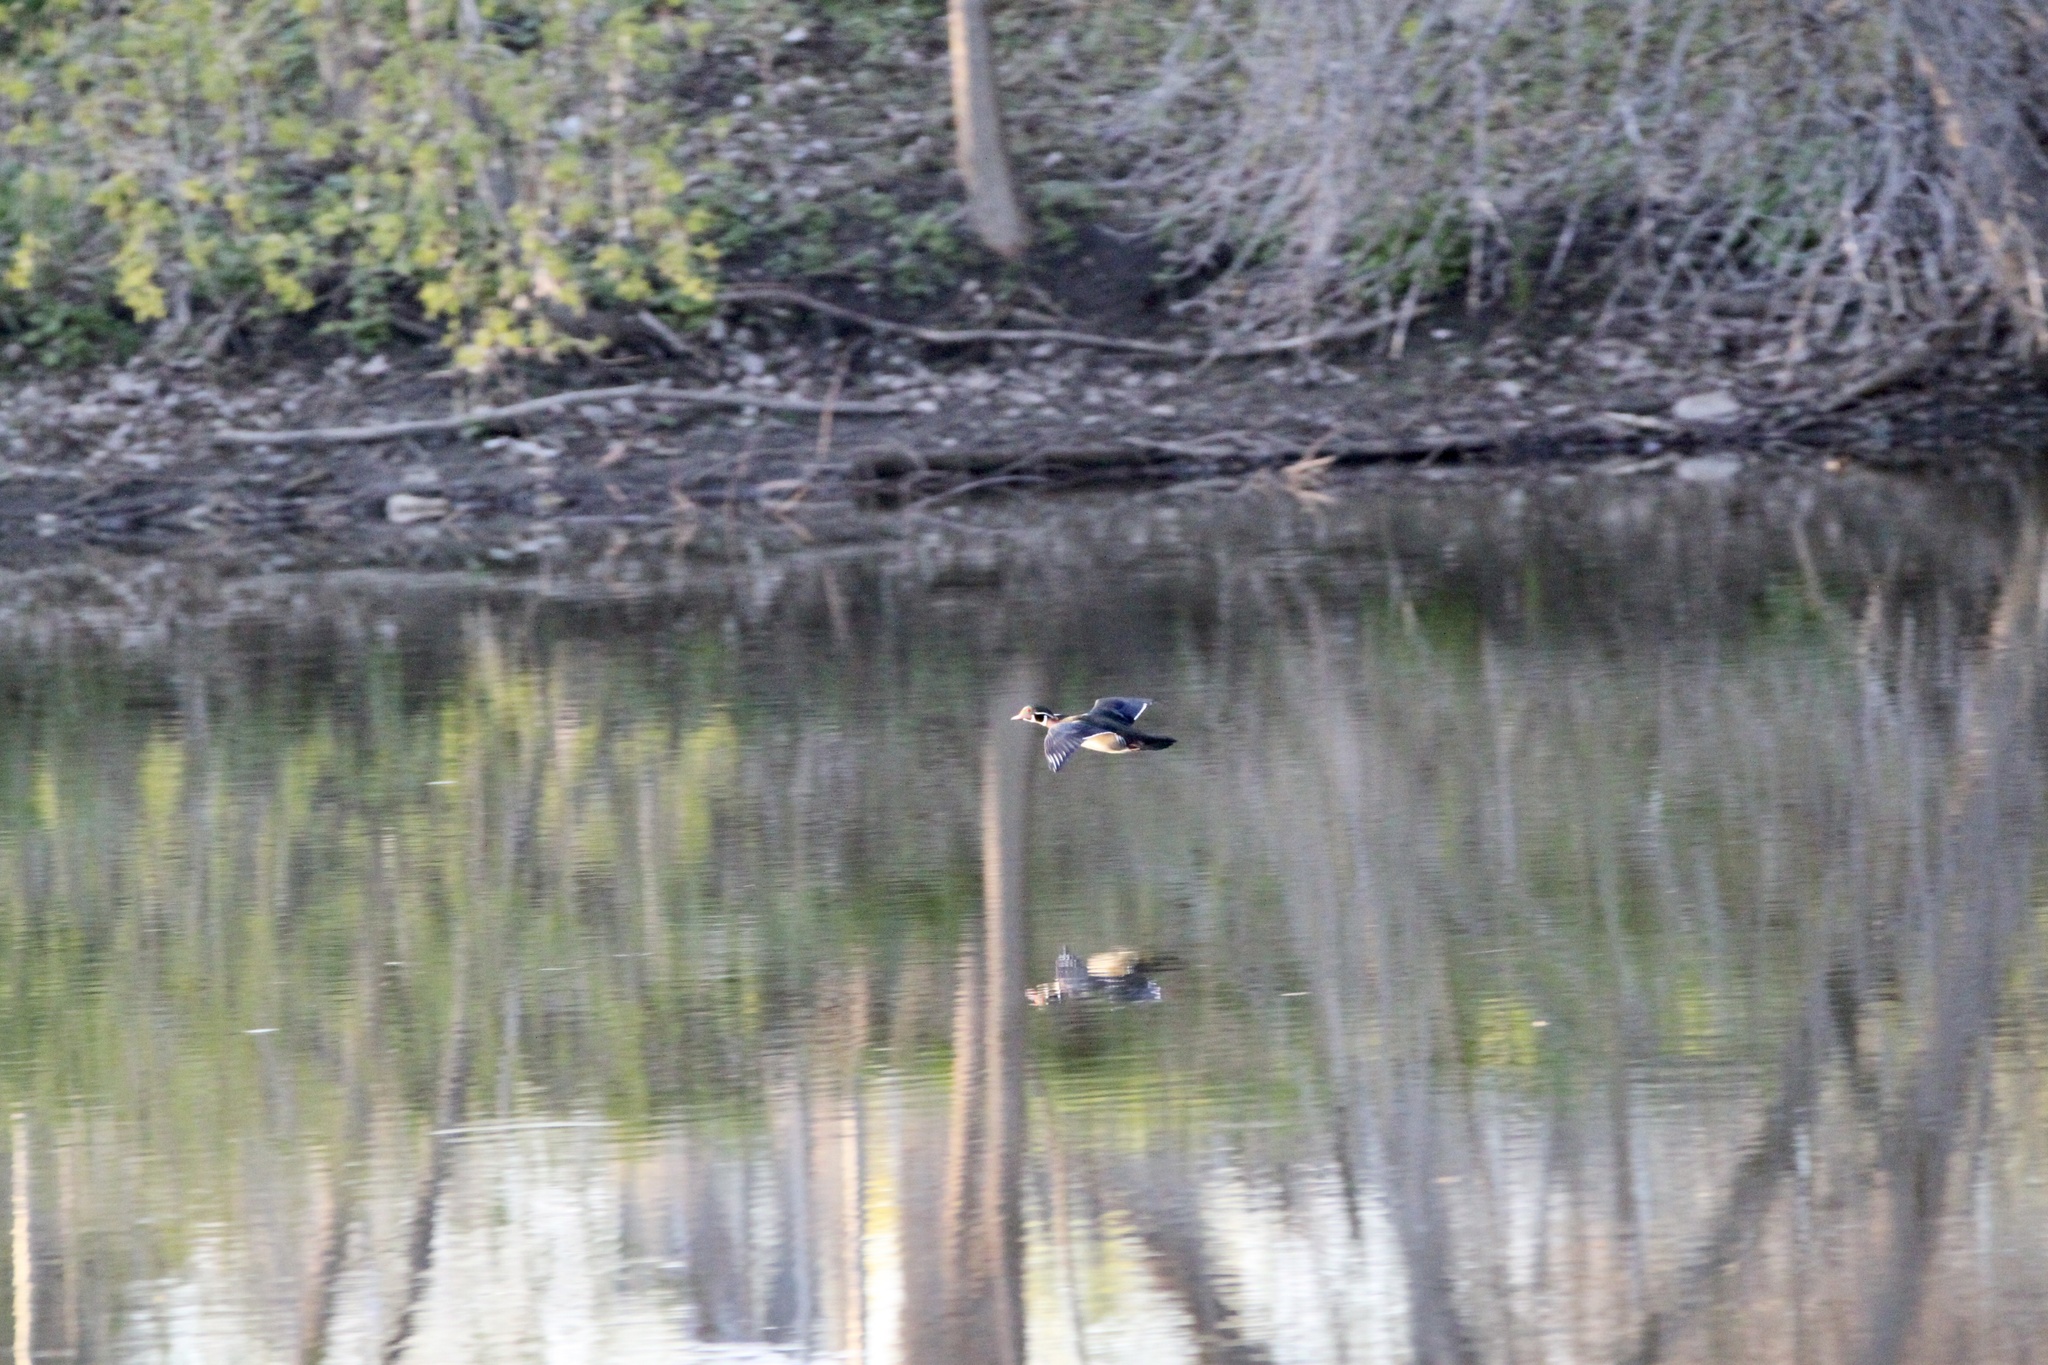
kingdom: Animalia
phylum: Chordata
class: Aves
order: Anseriformes
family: Anatidae
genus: Aix
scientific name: Aix sponsa
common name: Wood duck
